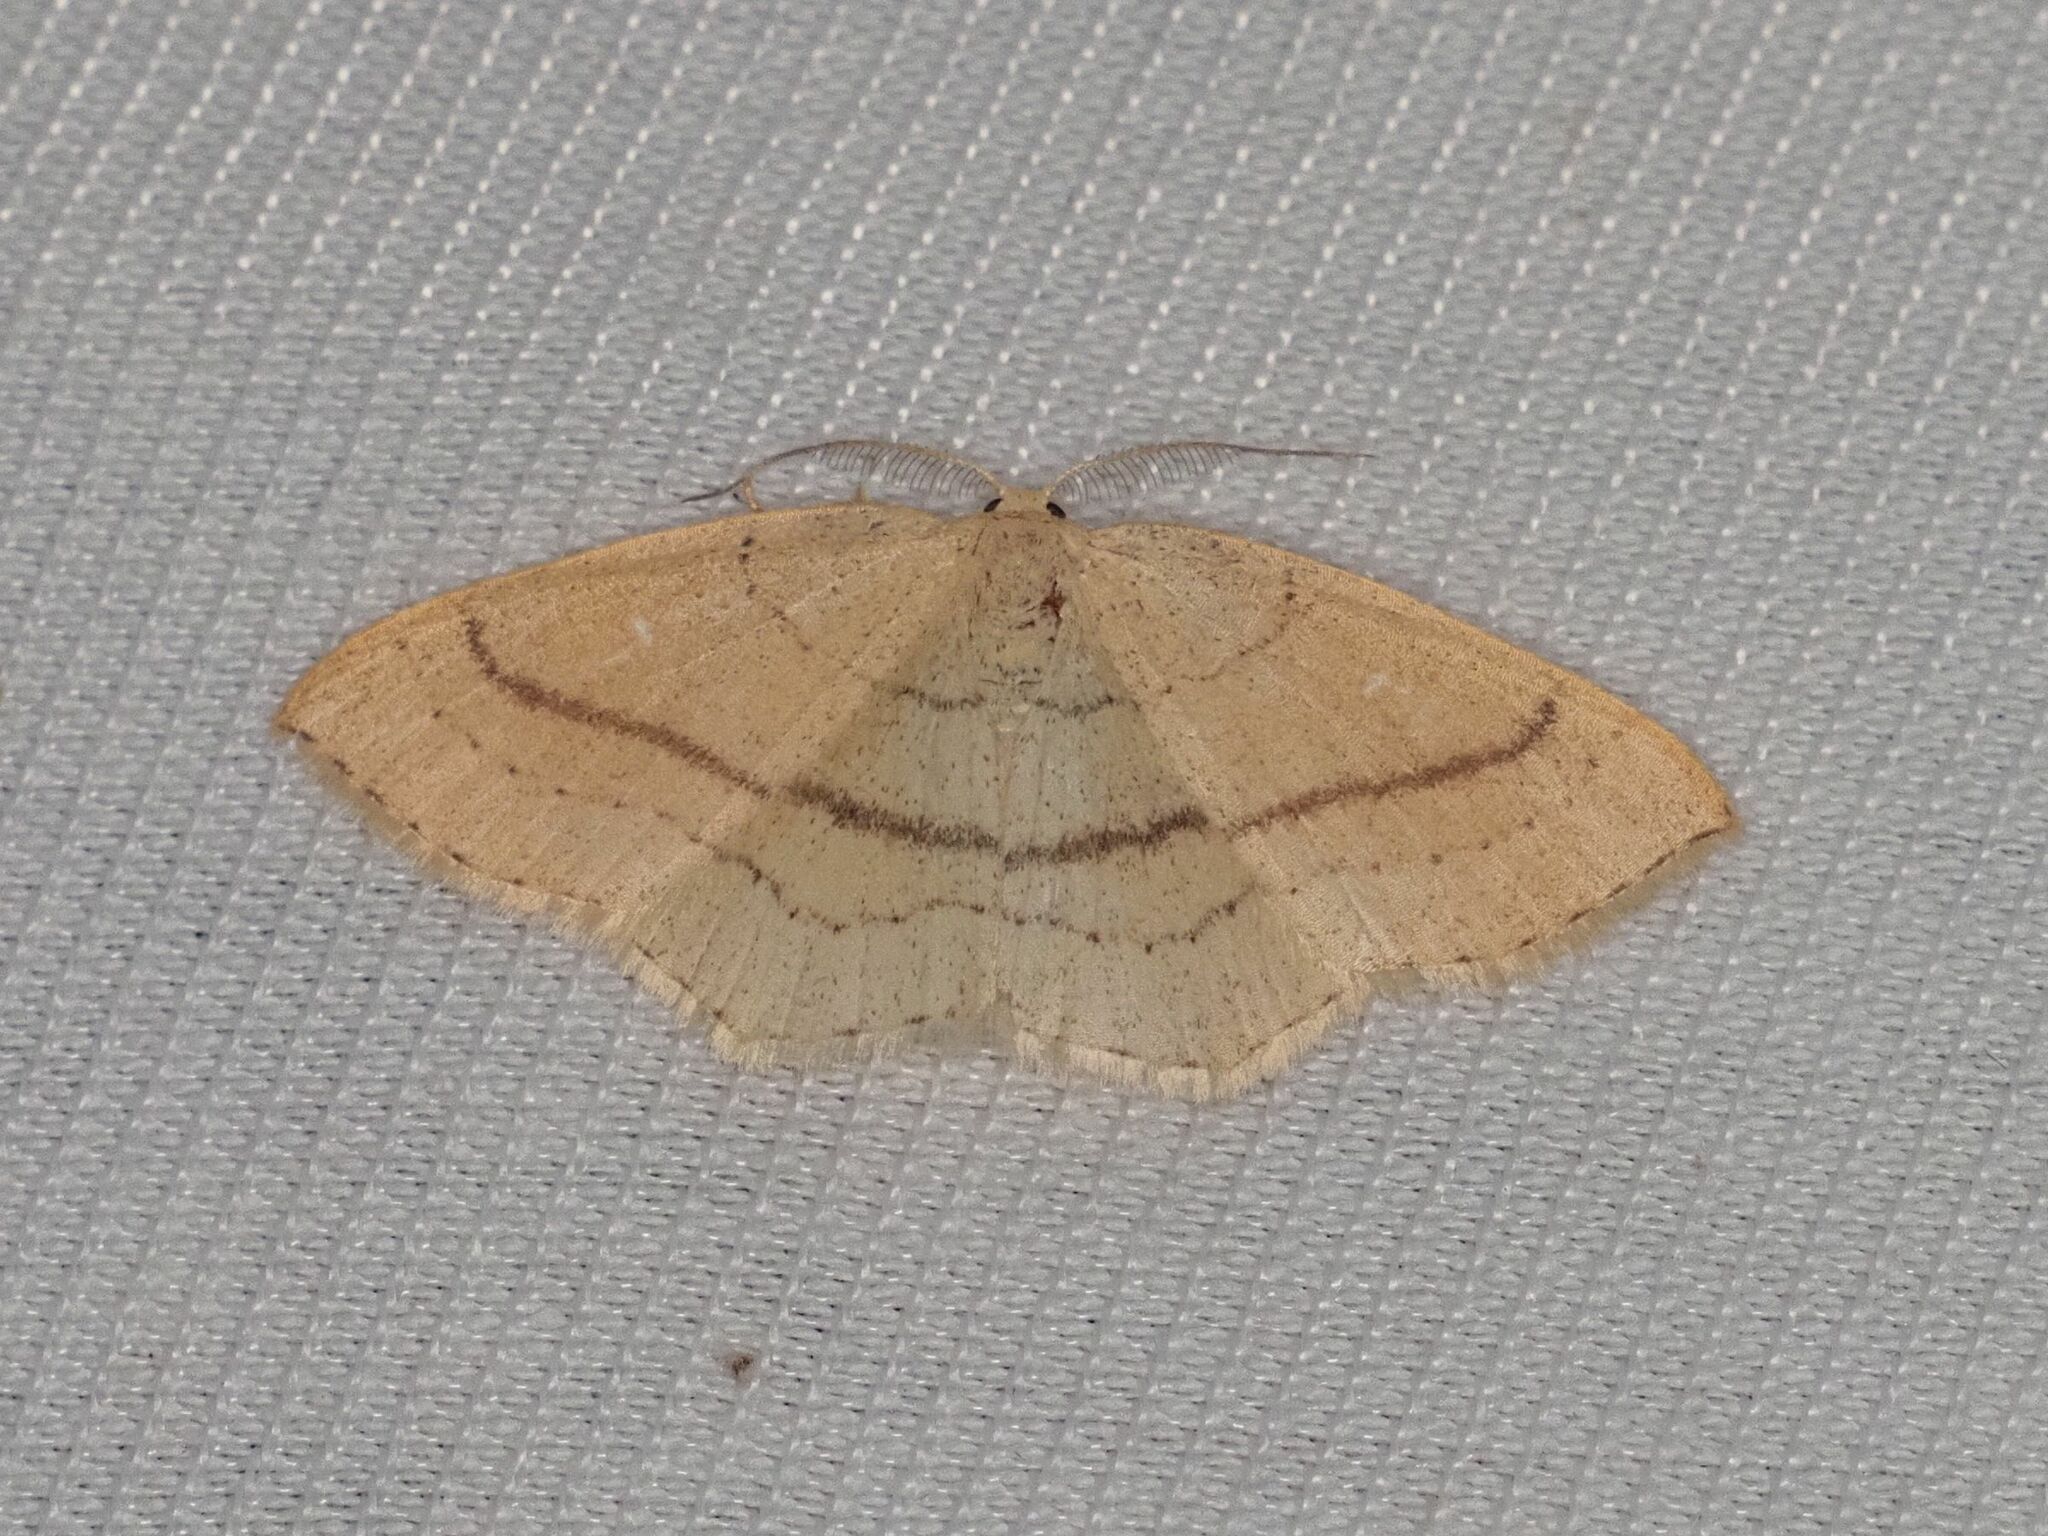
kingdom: Animalia
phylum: Arthropoda
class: Insecta
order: Lepidoptera
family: Geometridae
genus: Cyclophora
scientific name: Cyclophora linearia
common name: Clay triple-lines
